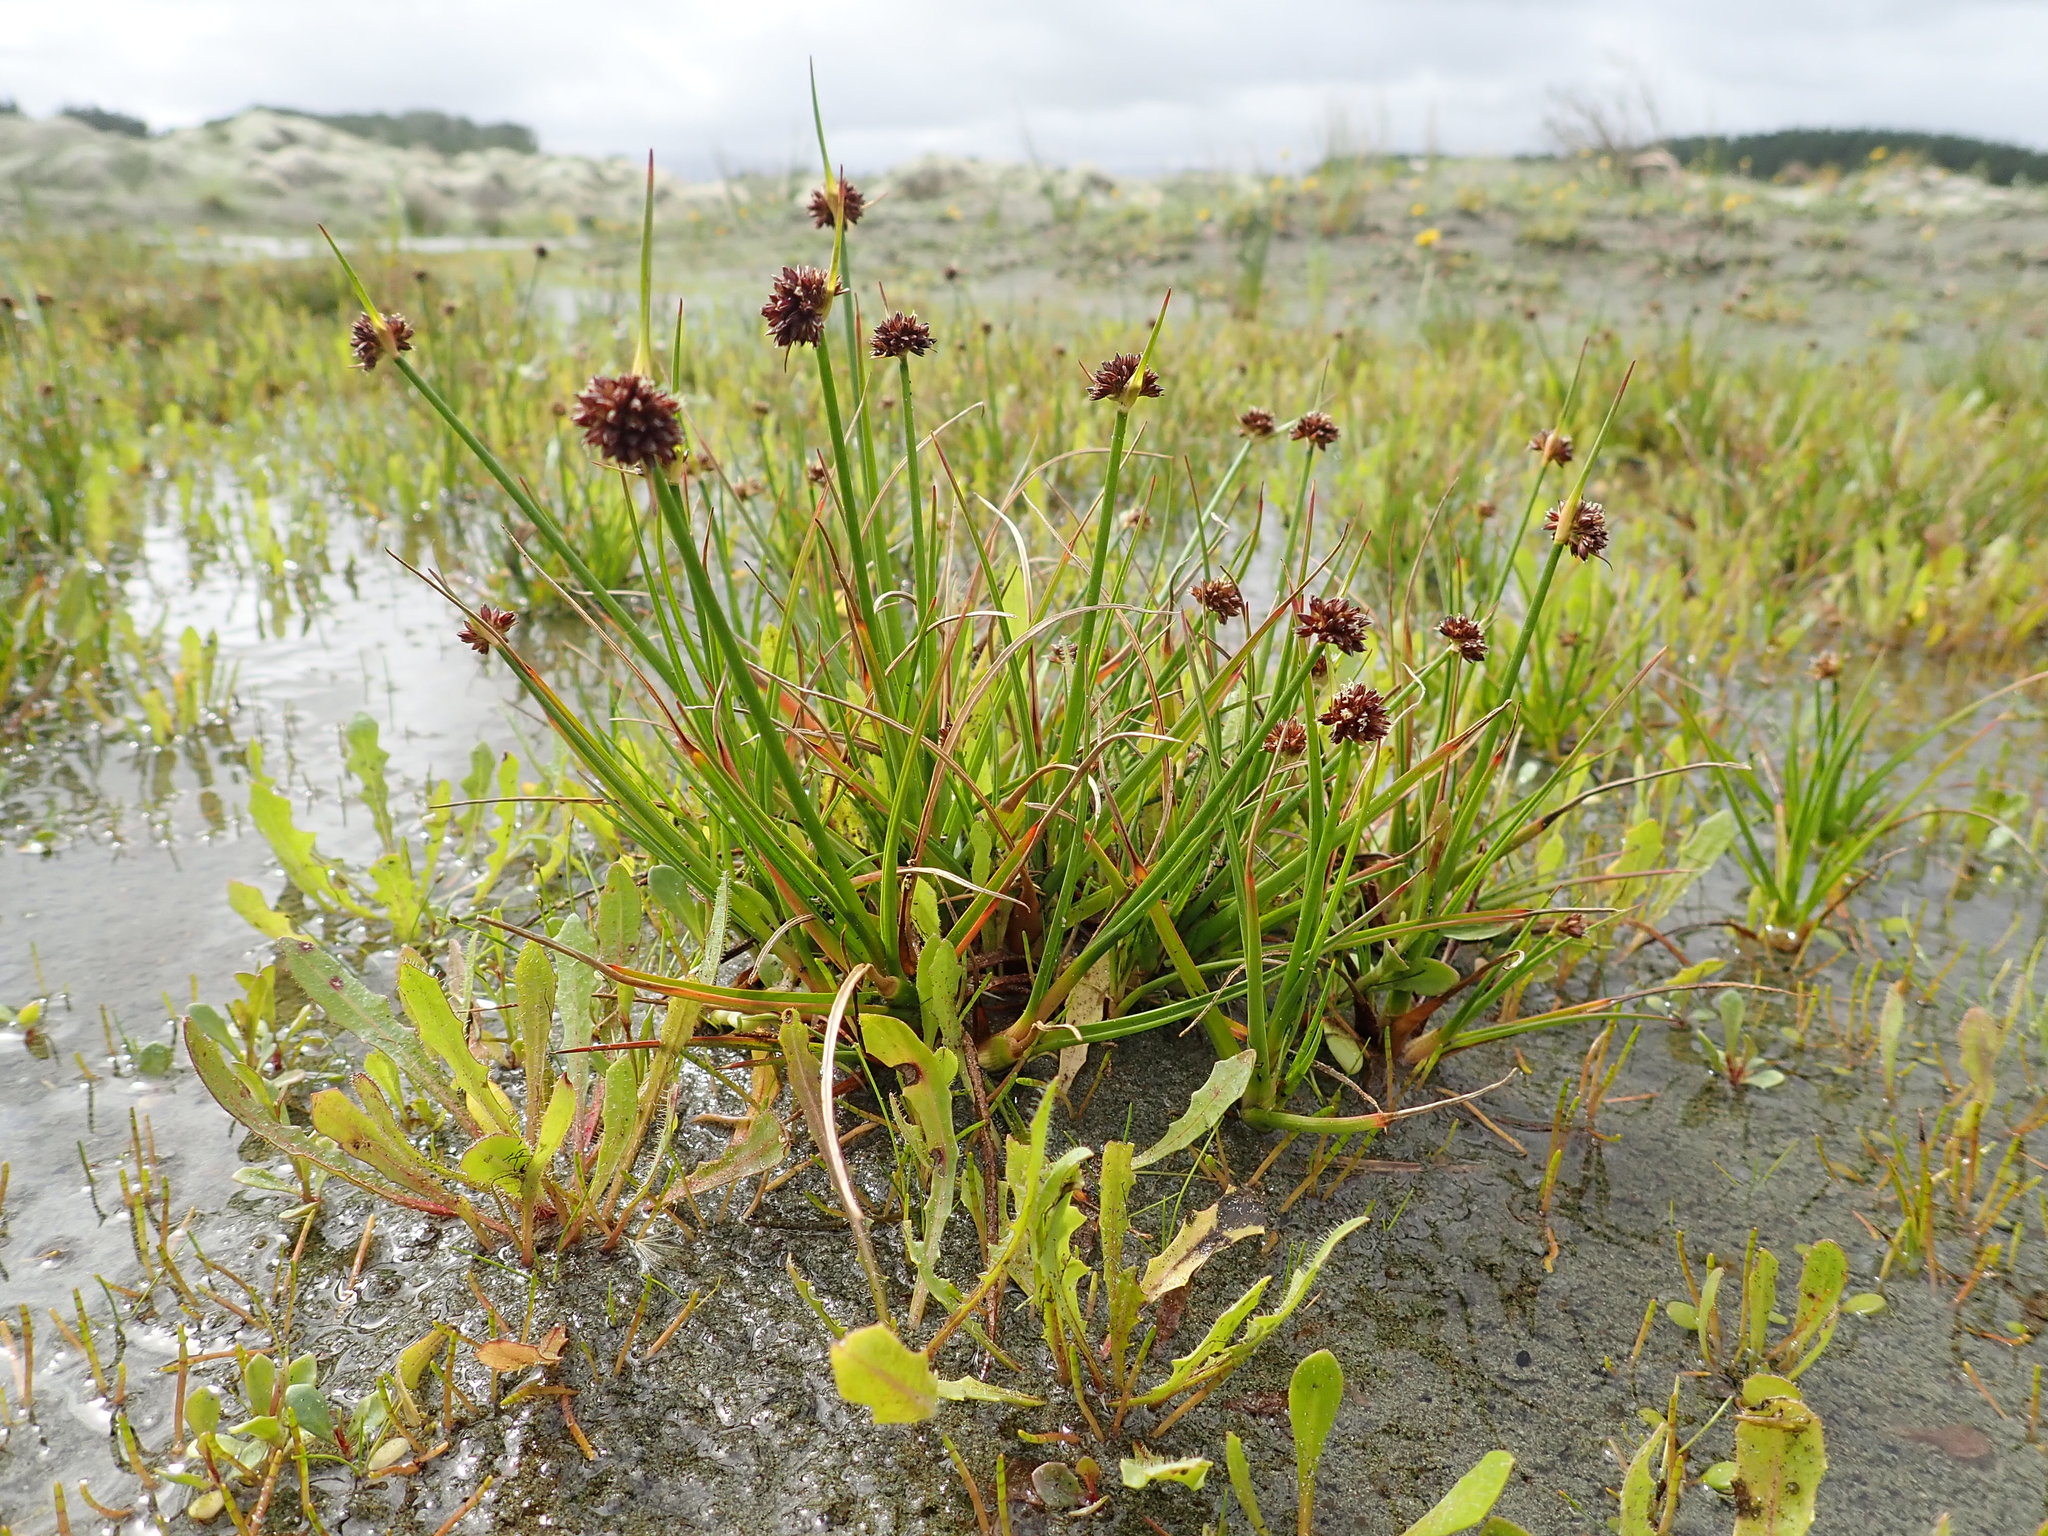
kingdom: Plantae
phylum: Tracheophyta
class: Liliopsida
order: Poales
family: Juncaceae
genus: Juncus
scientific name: Juncus caespiticius
